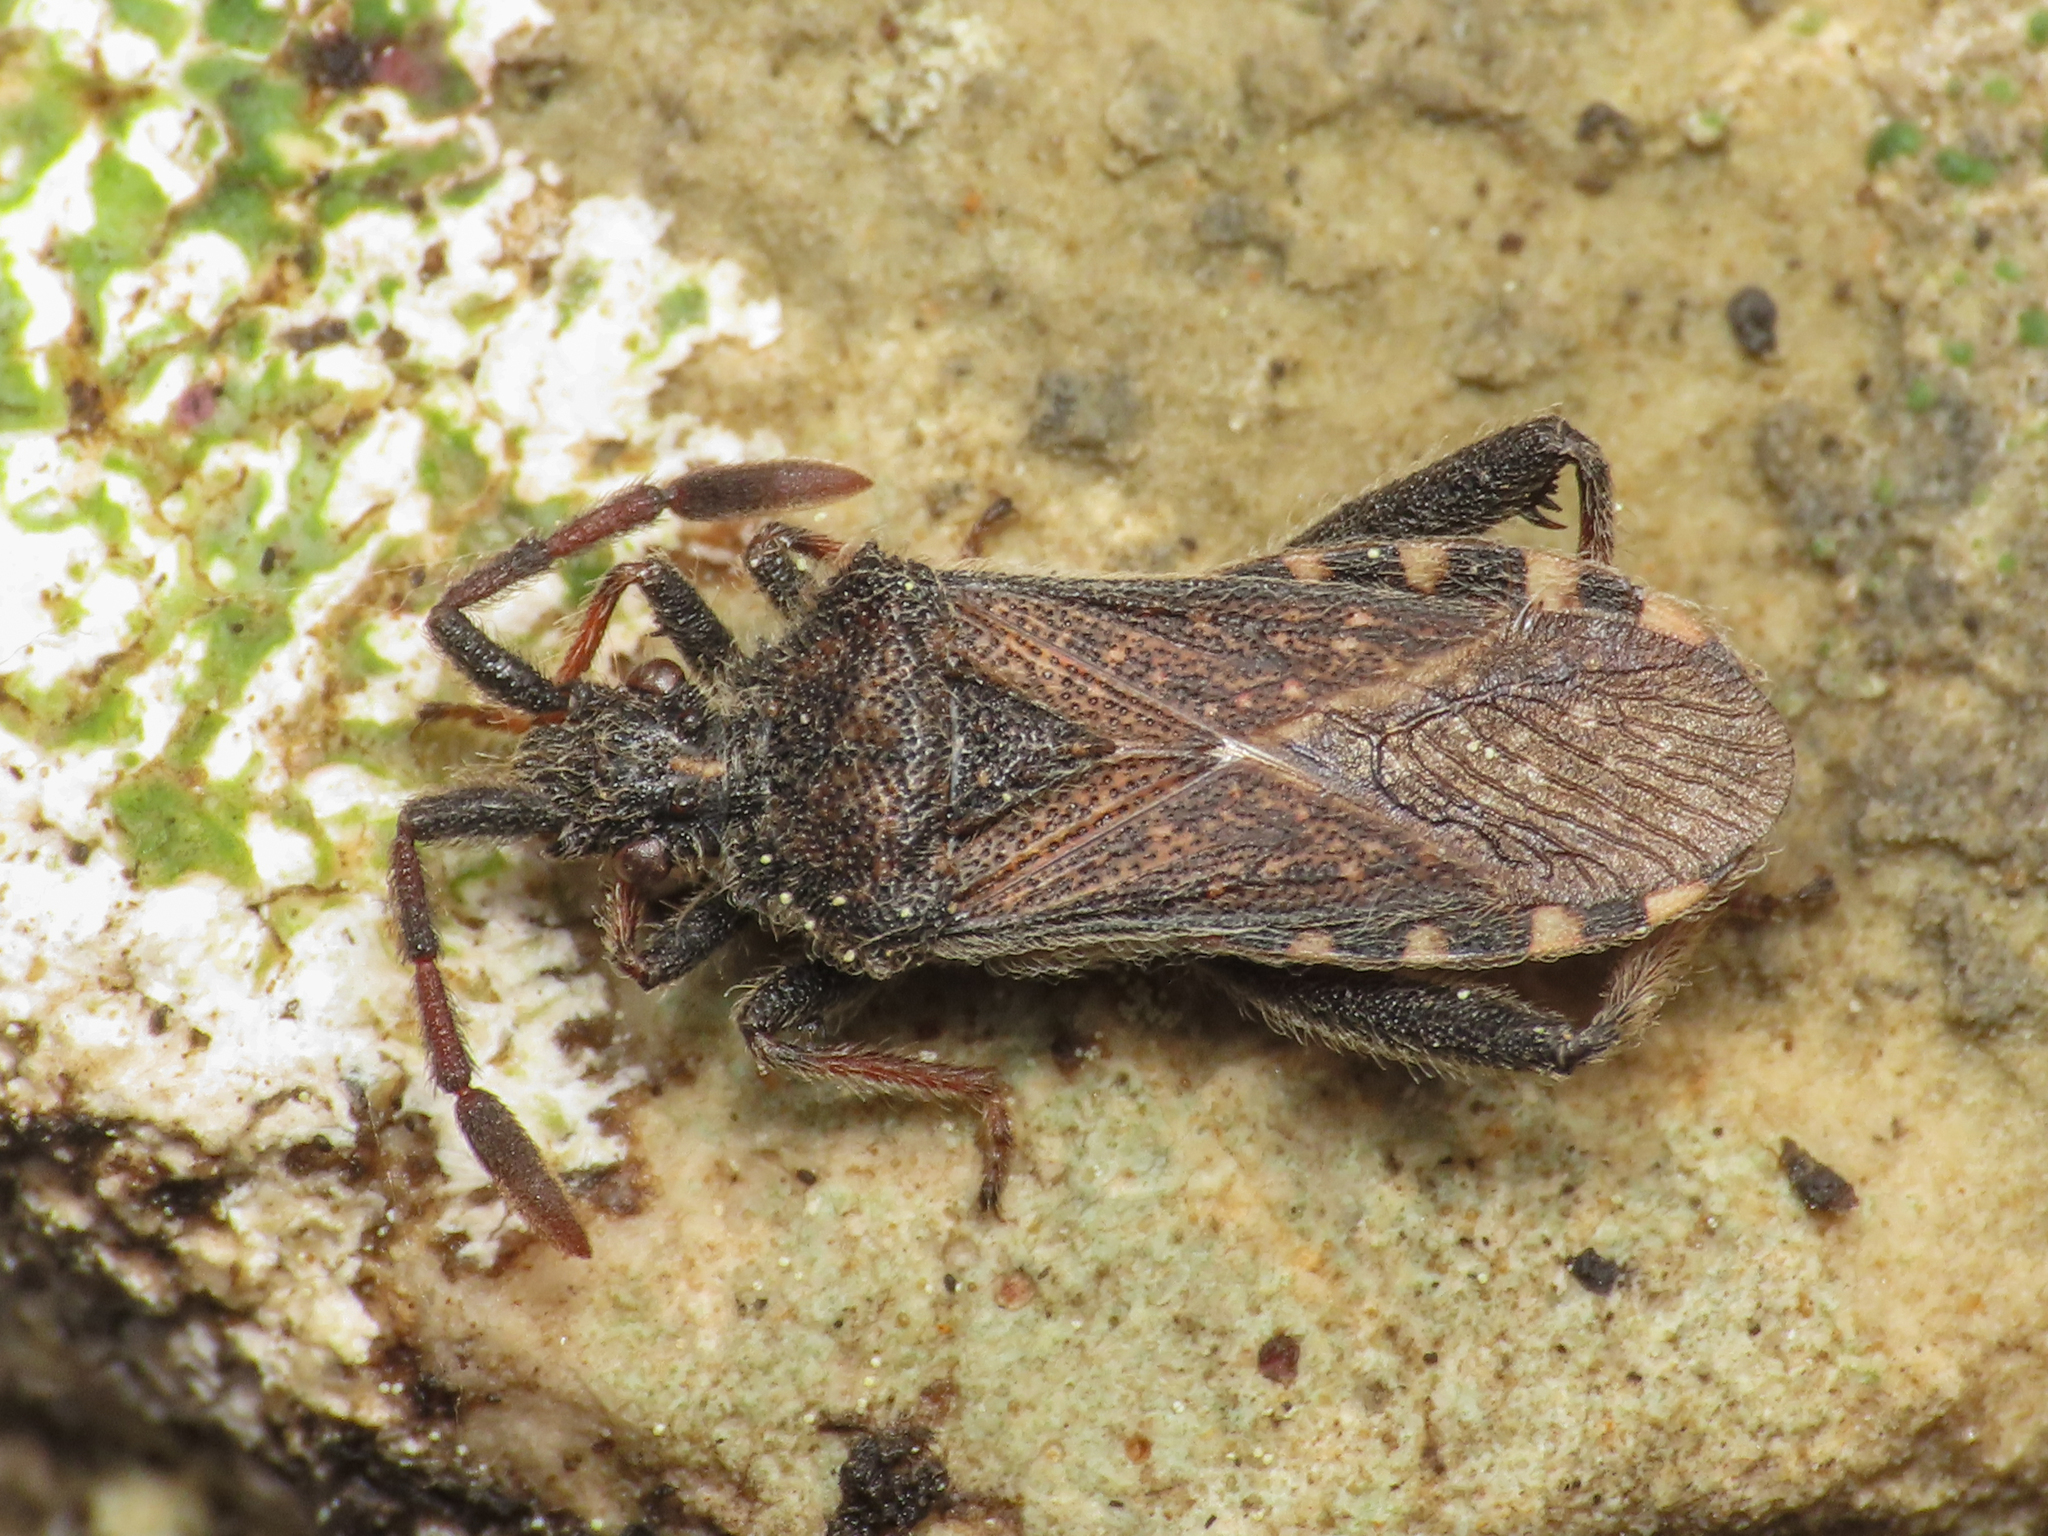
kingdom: Animalia
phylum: Arthropoda
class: Insecta
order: Hemiptera
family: Coreidae
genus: Loxocnemis
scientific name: Loxocnemis dentator
